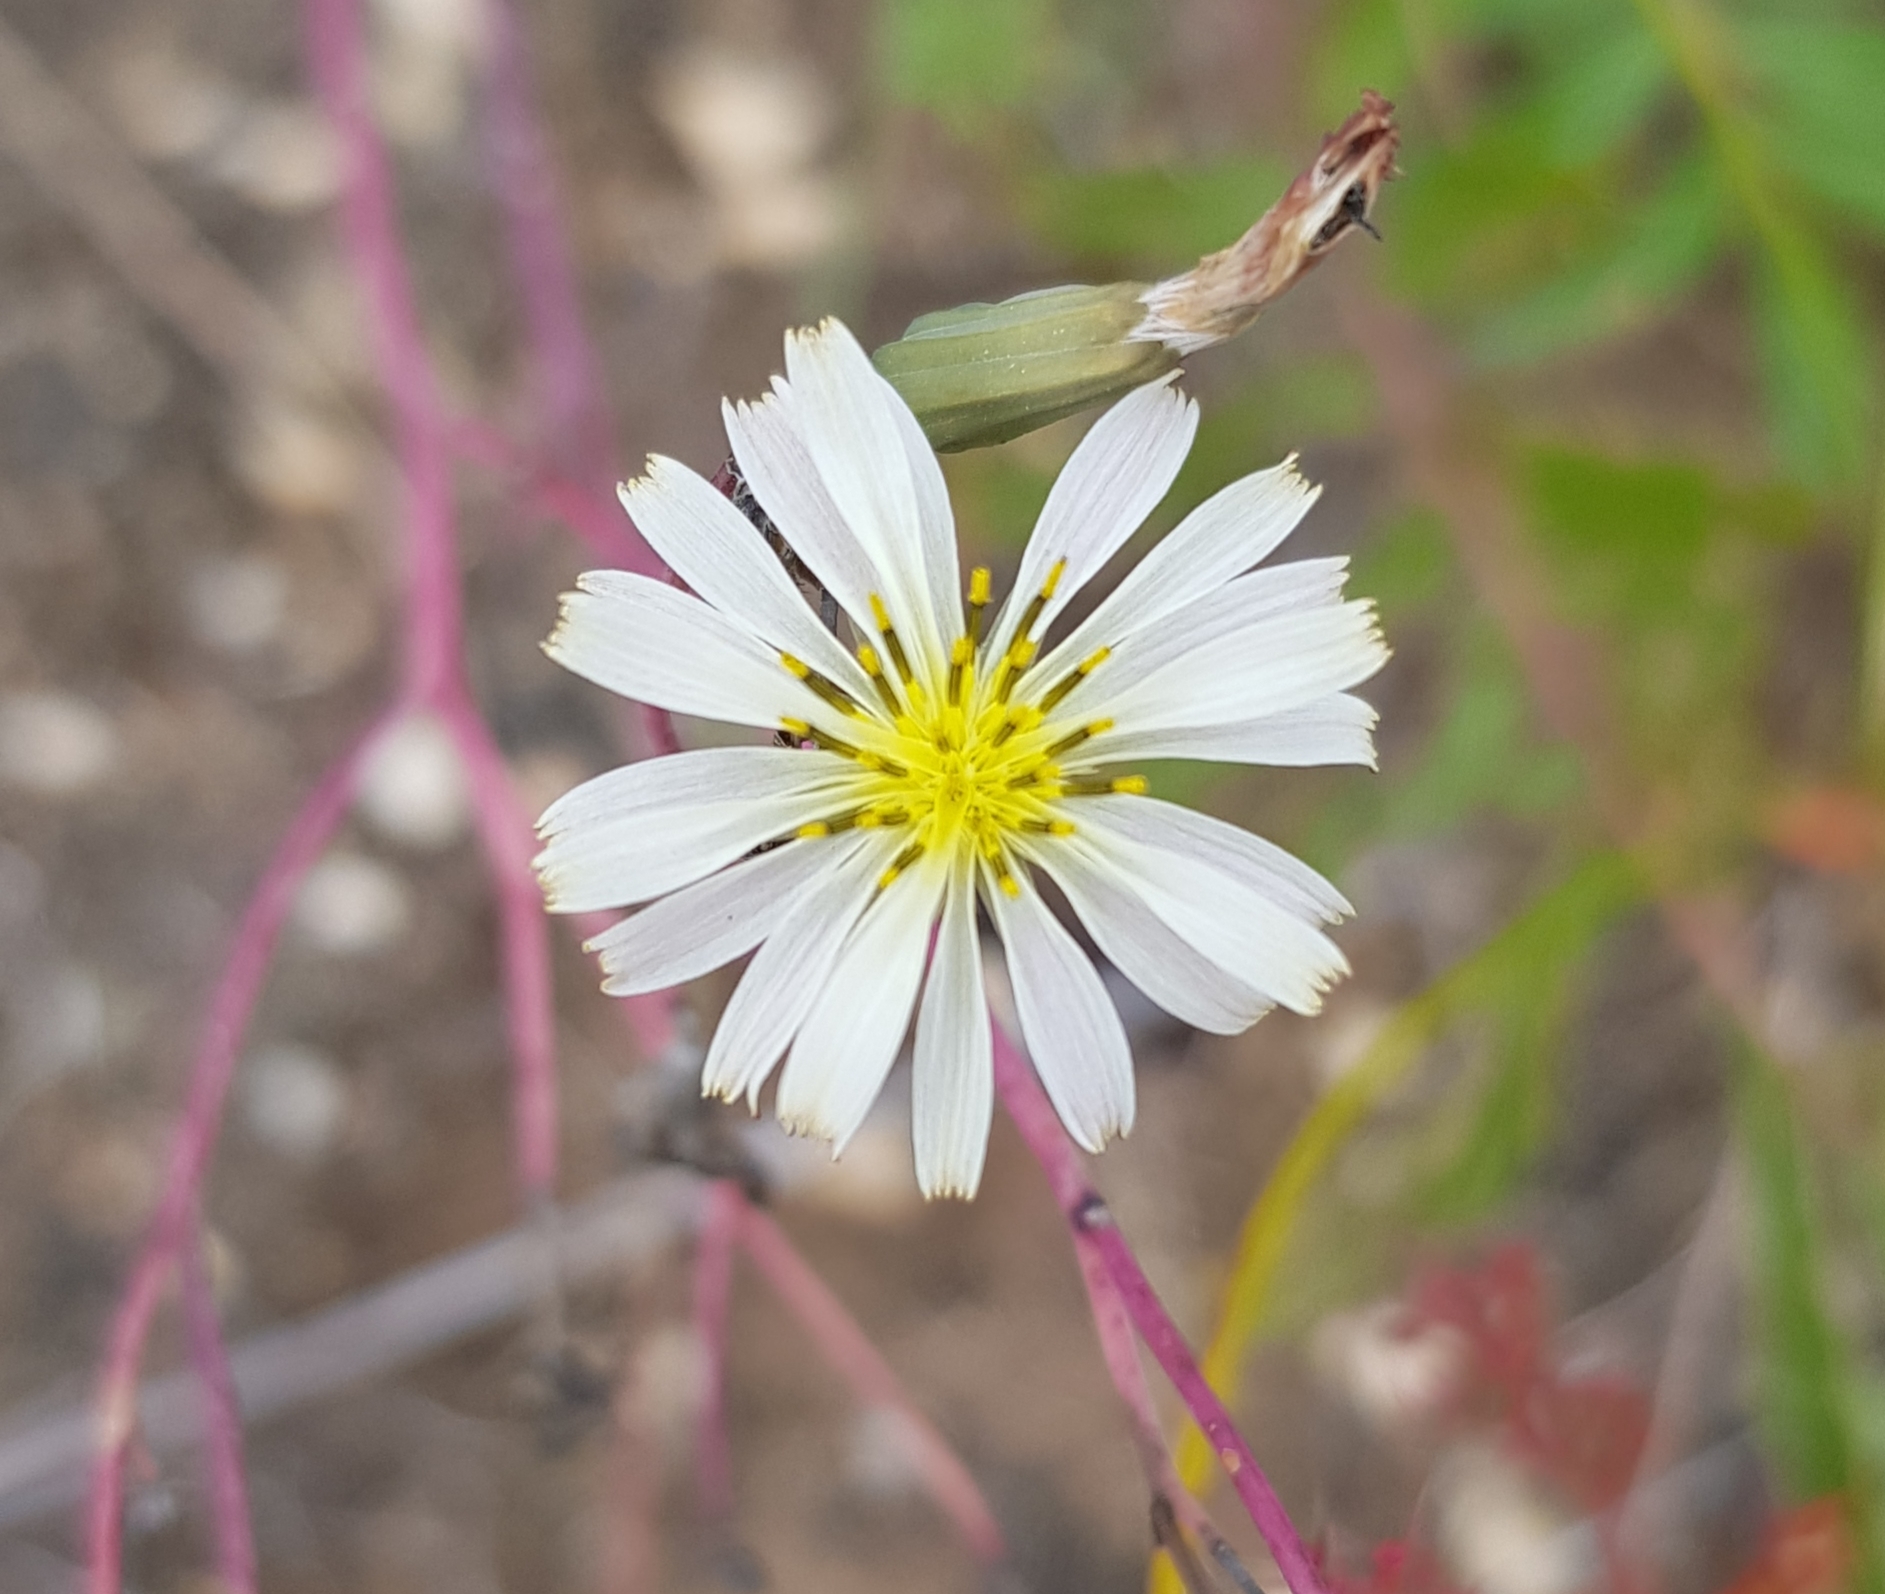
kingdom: Plantae
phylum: Tracheophyta
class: Magnoliopsida
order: Asterales
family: Asteraceae
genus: Ixeris
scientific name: Ixeris chinensis
